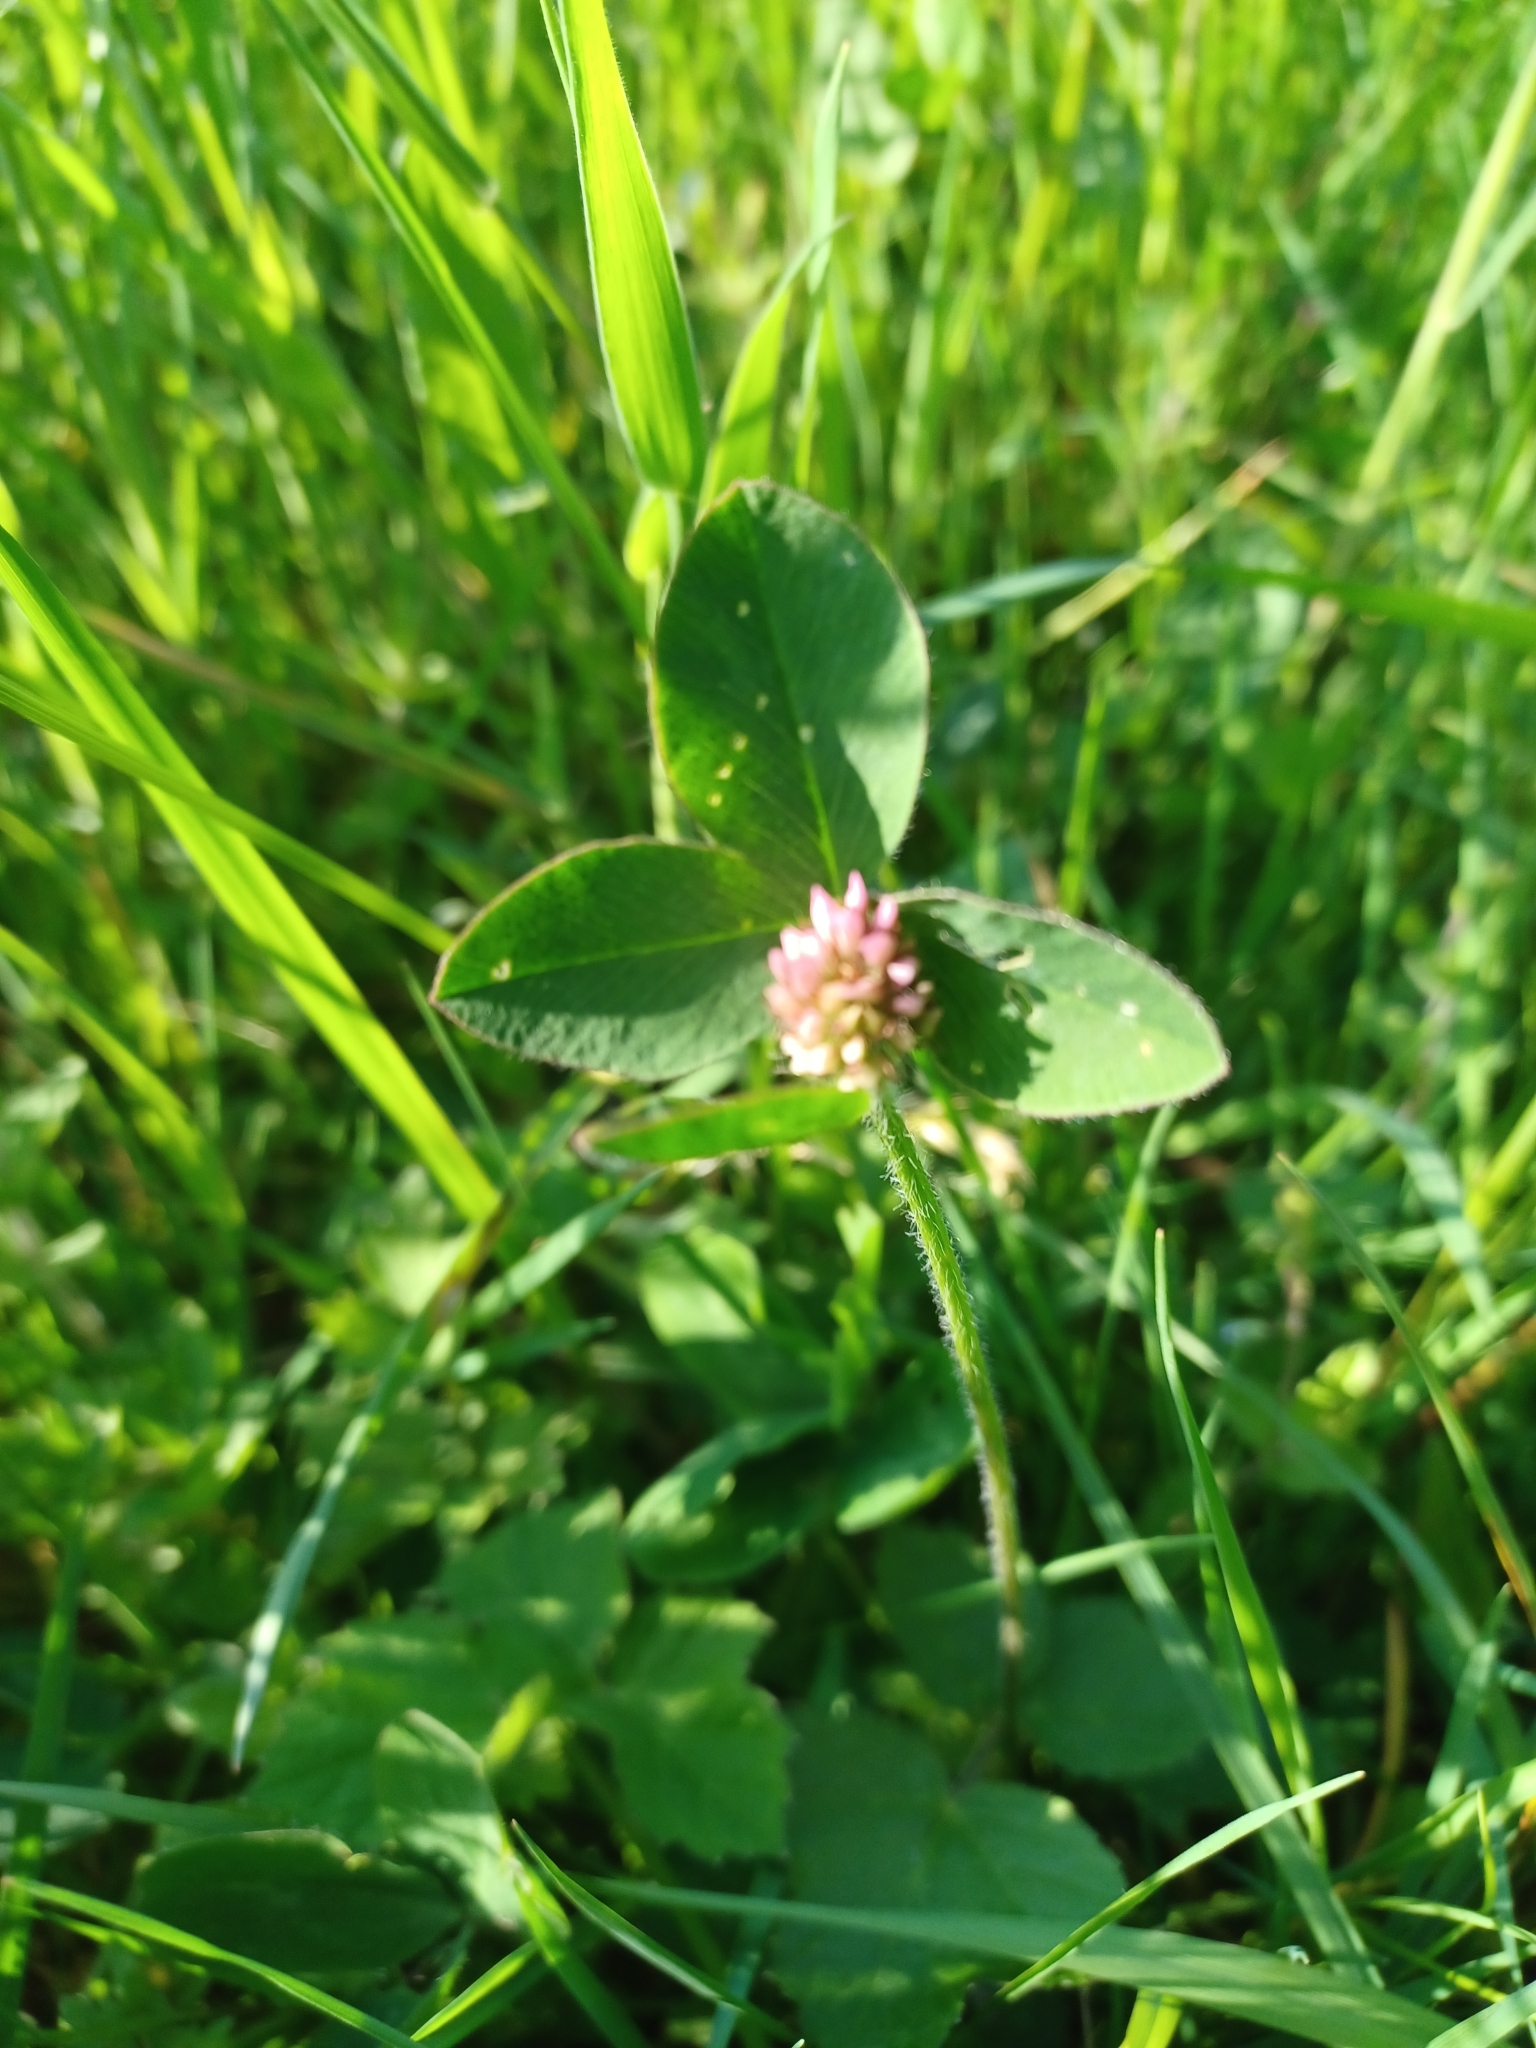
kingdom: Plantae
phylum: Tracheophyta
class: Magnoliopsida
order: Fabales
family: Fabaceae
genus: Trifolium
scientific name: Trifolium pratense
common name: Red clover
